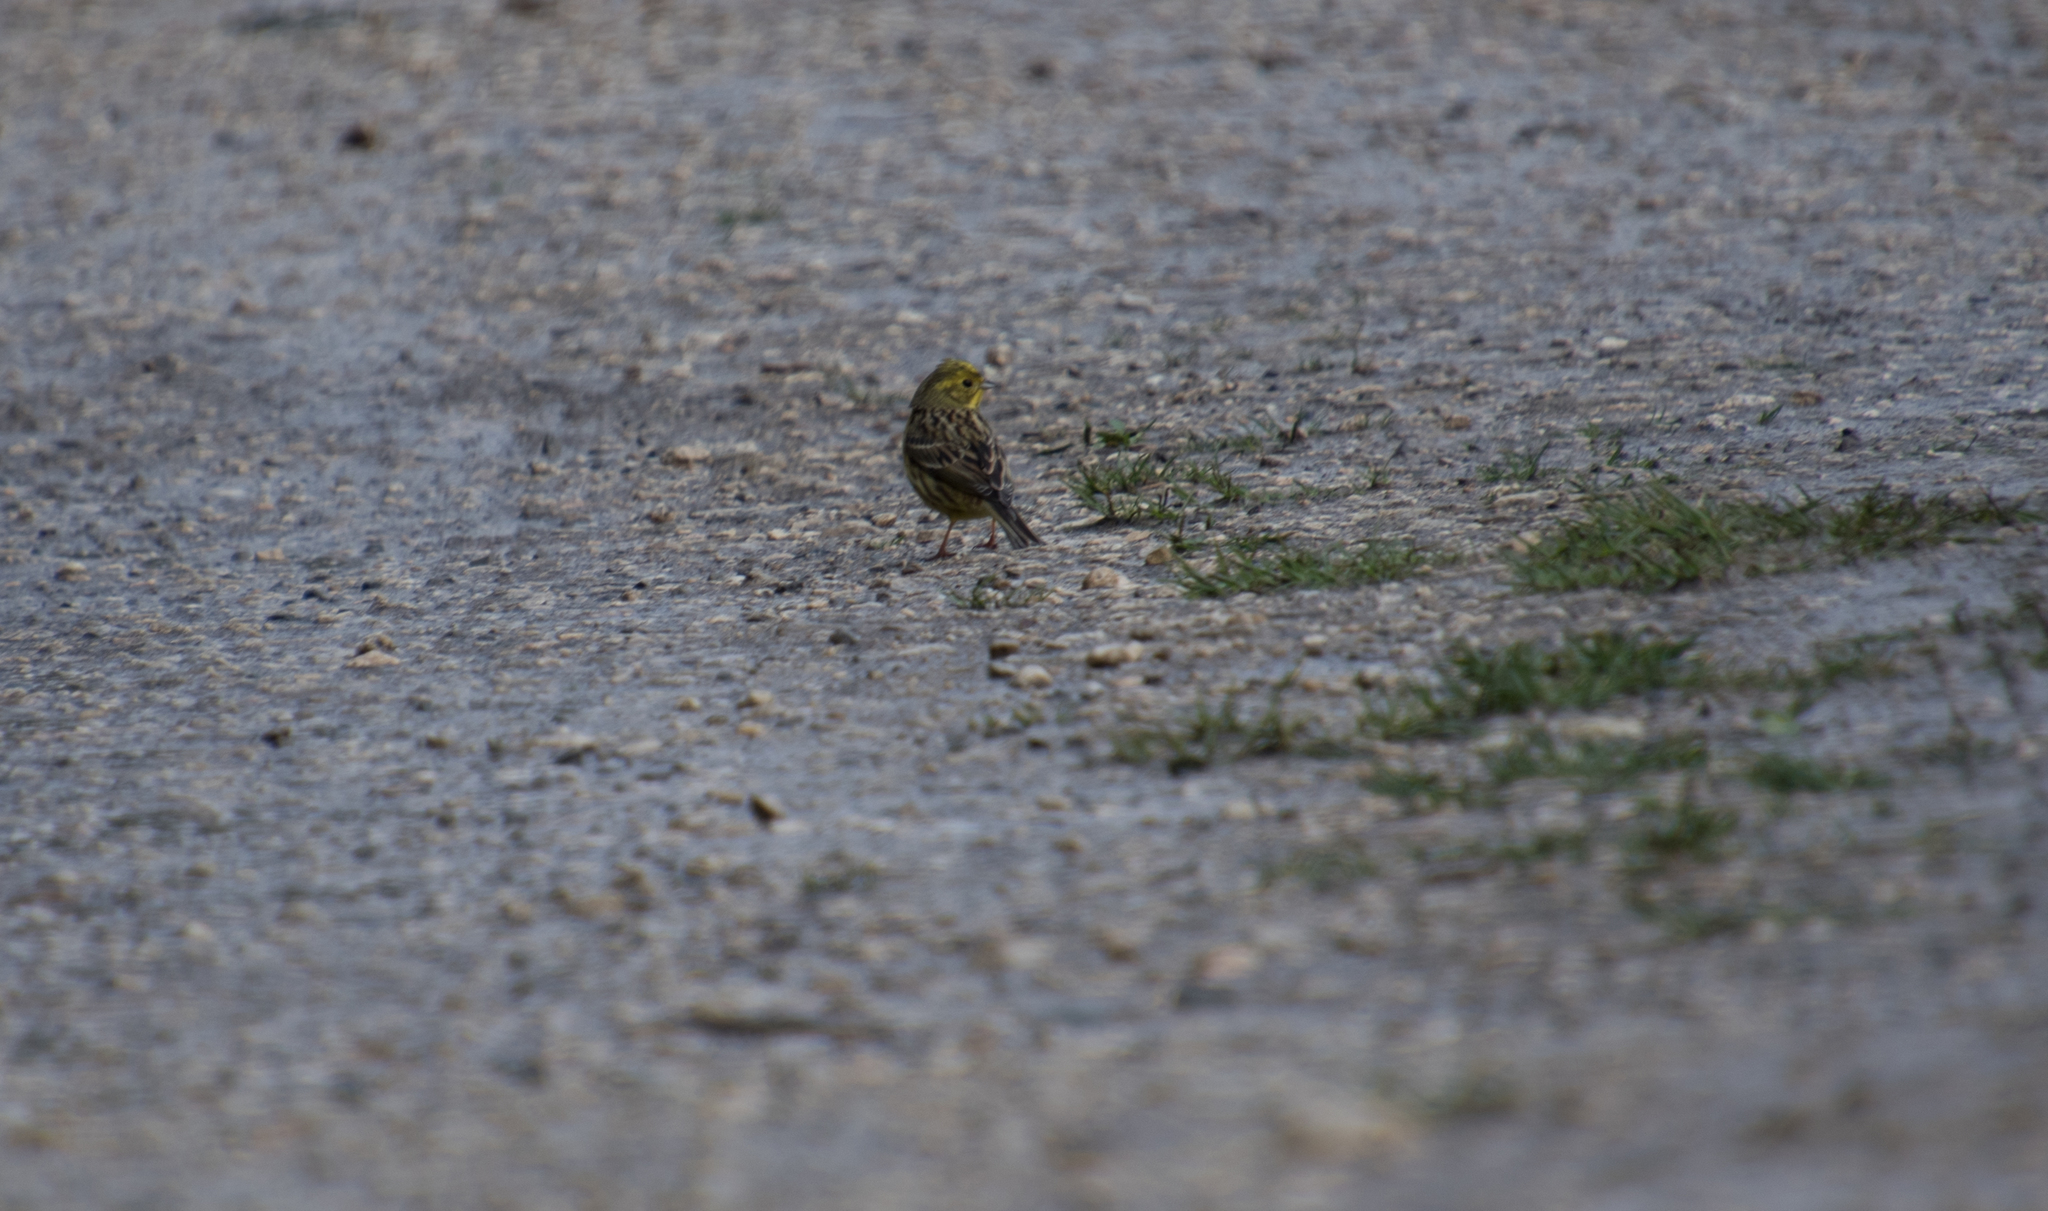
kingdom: Animalia
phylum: Chordata
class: Aves
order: Passeriformes
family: Emberizidae
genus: Emberiza
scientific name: Emberiza citrinella
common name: Yellowhammer
